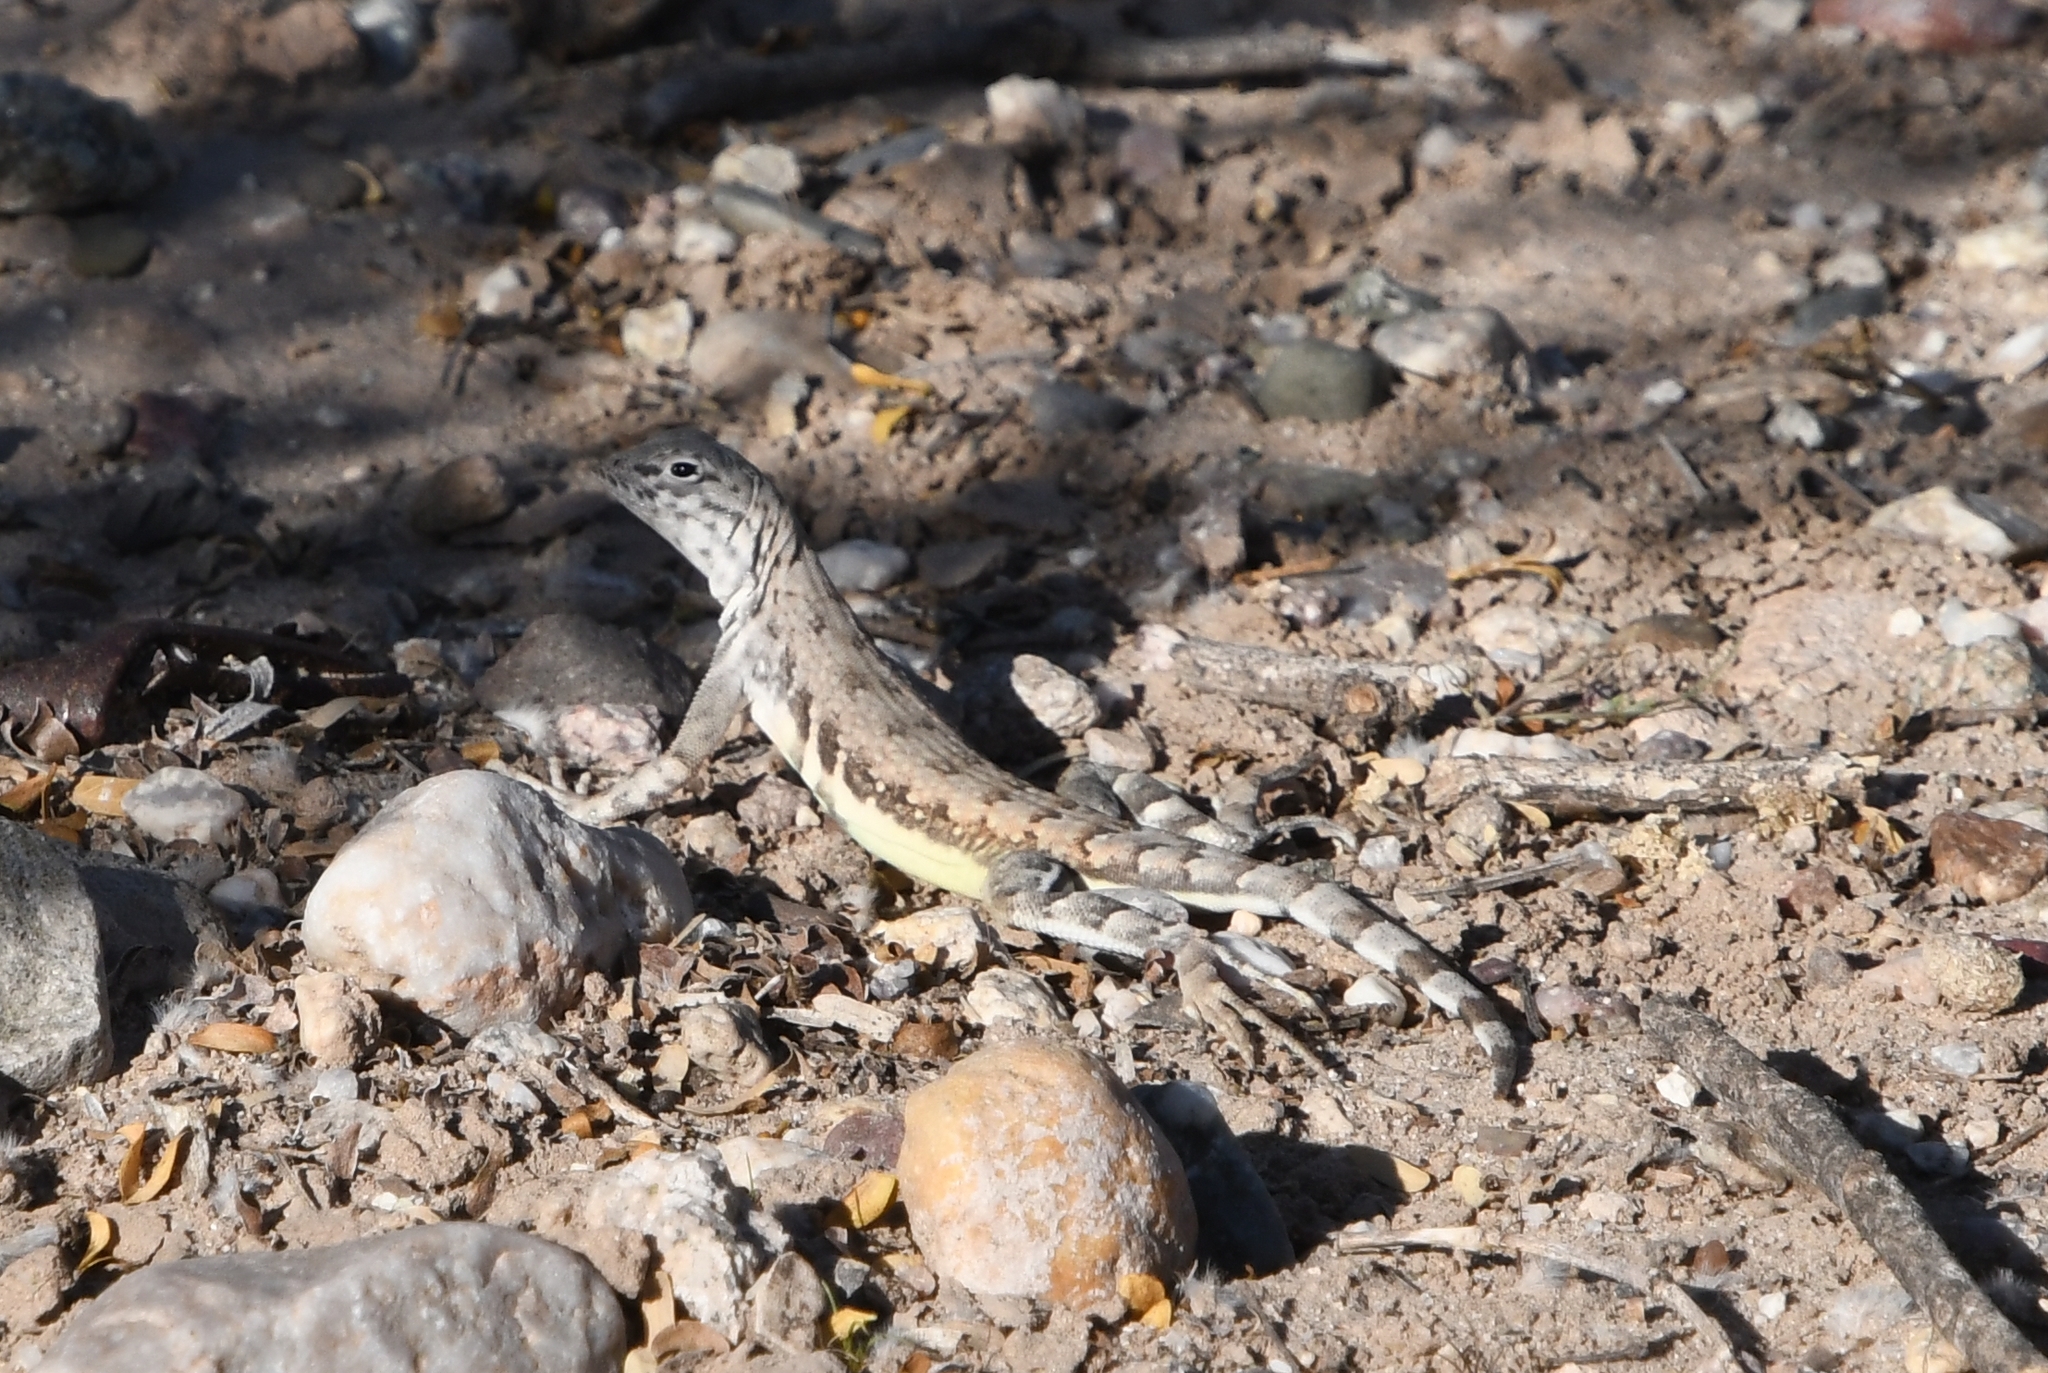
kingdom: Animalia
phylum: Chordata
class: Squamata
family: Phrynosomatidae
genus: Callisaurus
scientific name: Callisaurus draconoides
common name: Zebra-tailed lizard
